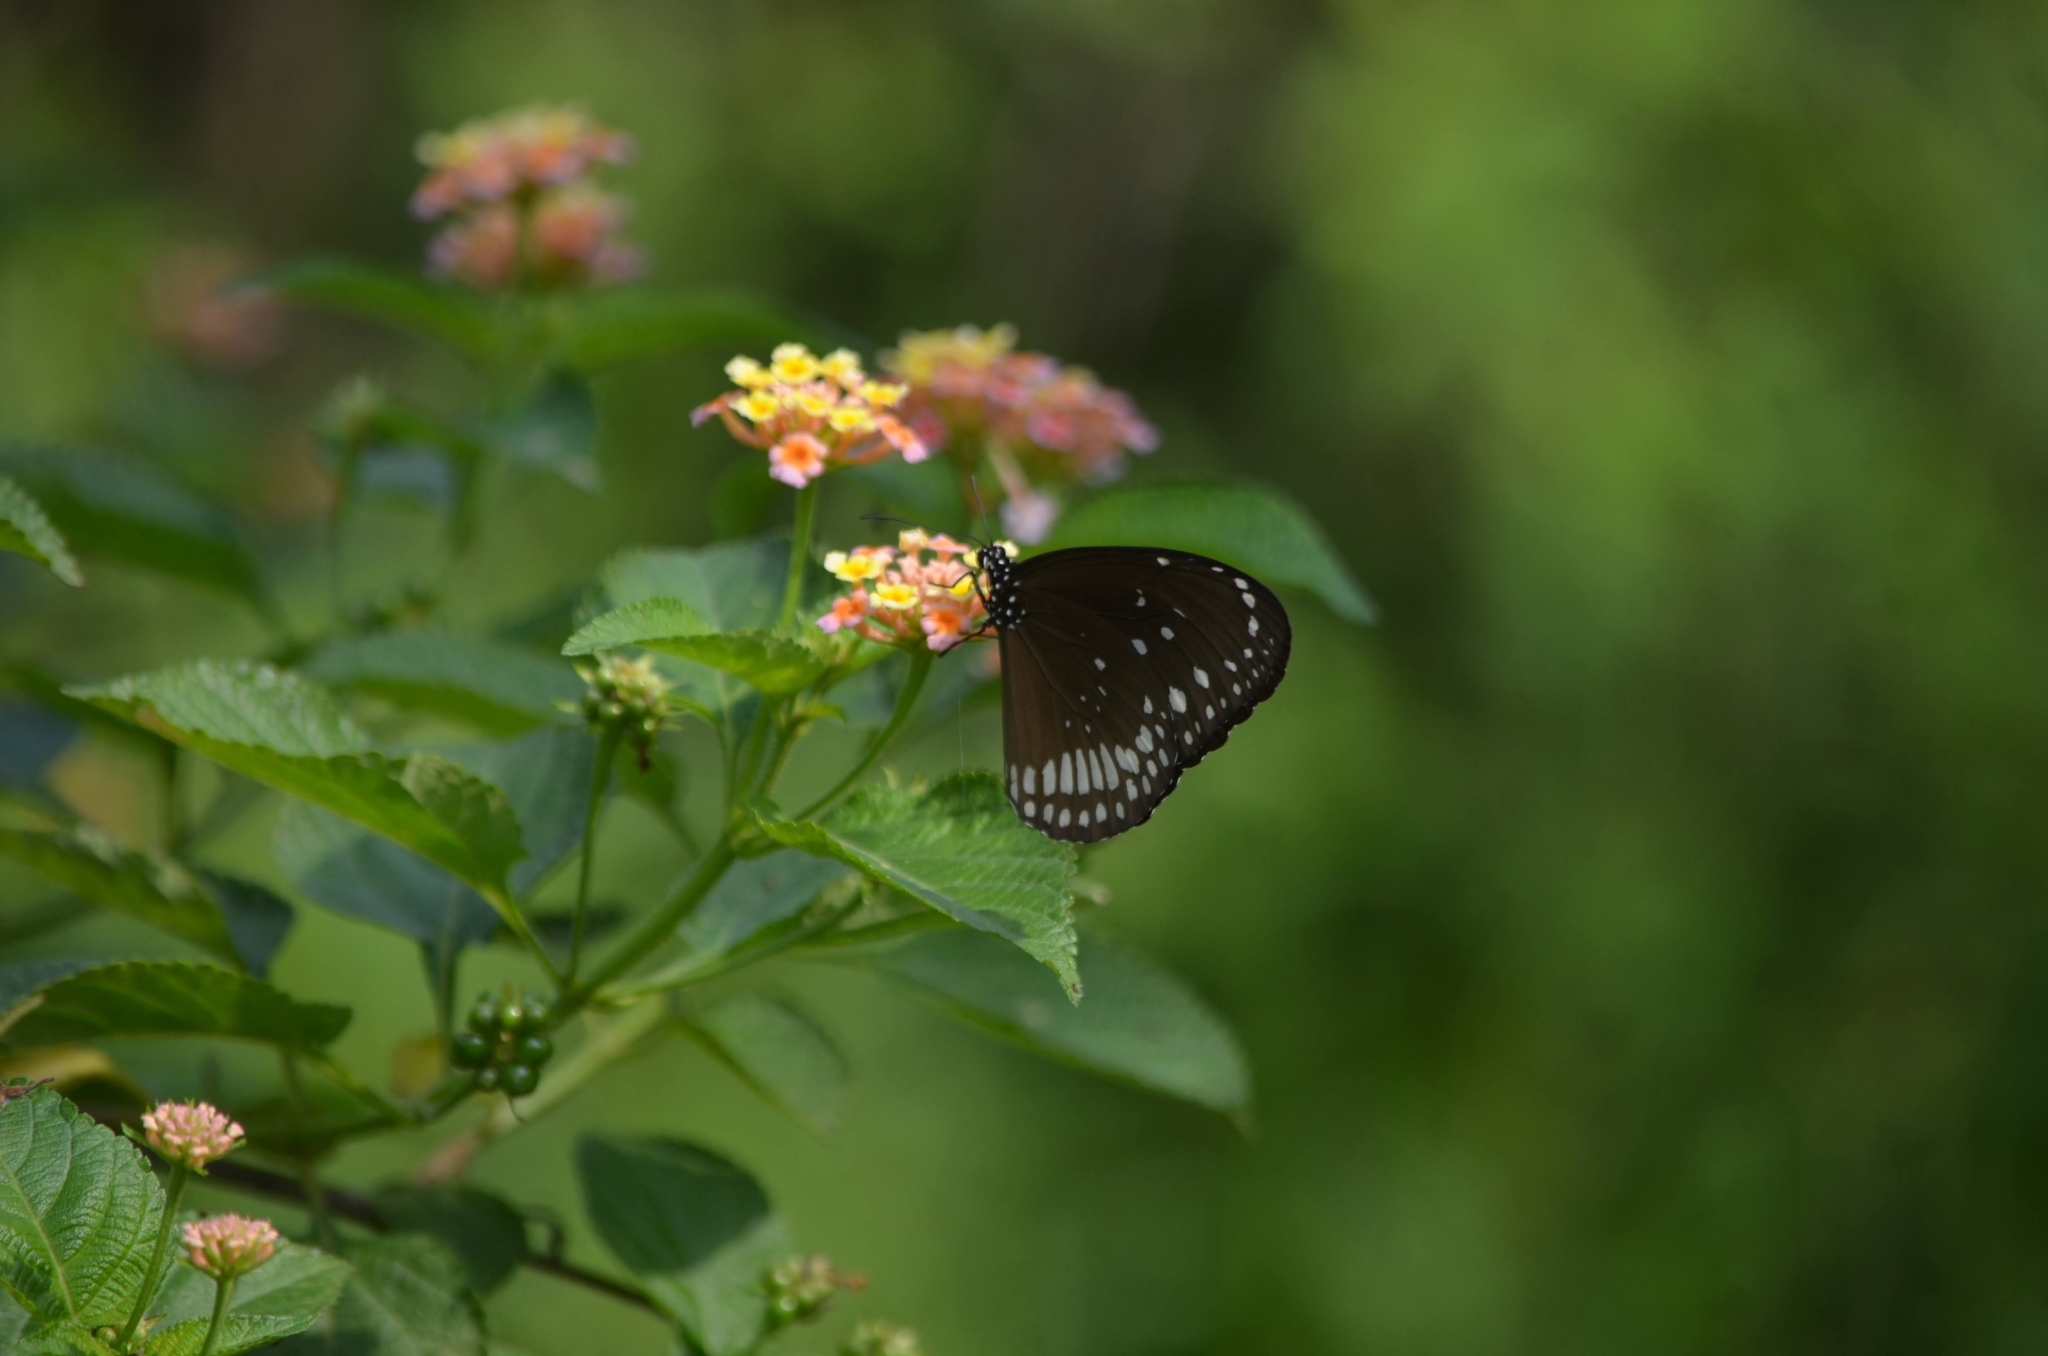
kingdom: Animalia
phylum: Arthropoda
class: Insecta
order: Lepidoptera
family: Nymphalidae
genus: Euploea
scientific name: Euploea core
